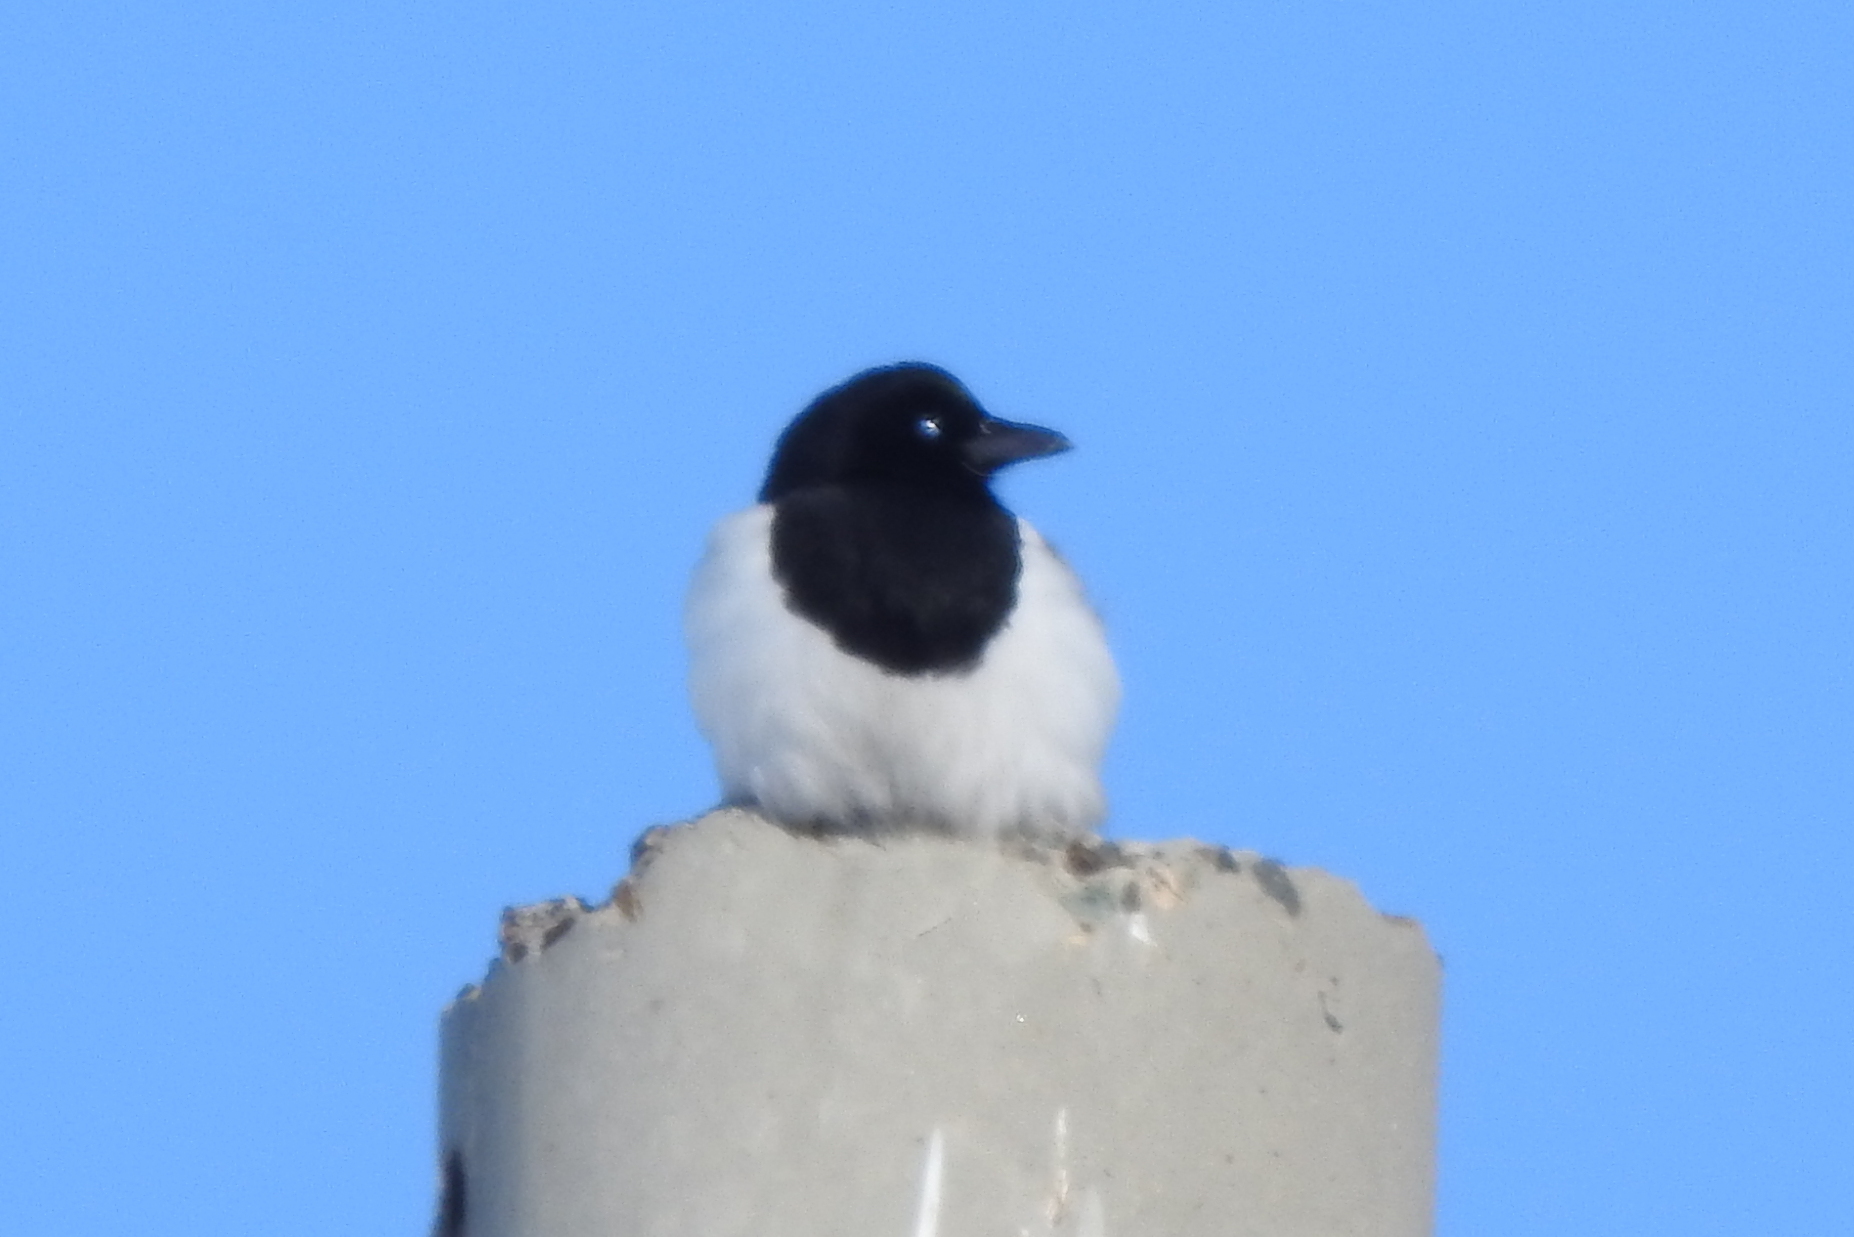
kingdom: Animalia
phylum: Chordata
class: Aves
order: Passeriformes
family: Corvidae
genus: Pica
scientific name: Pica pica
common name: Eurasian magpie
